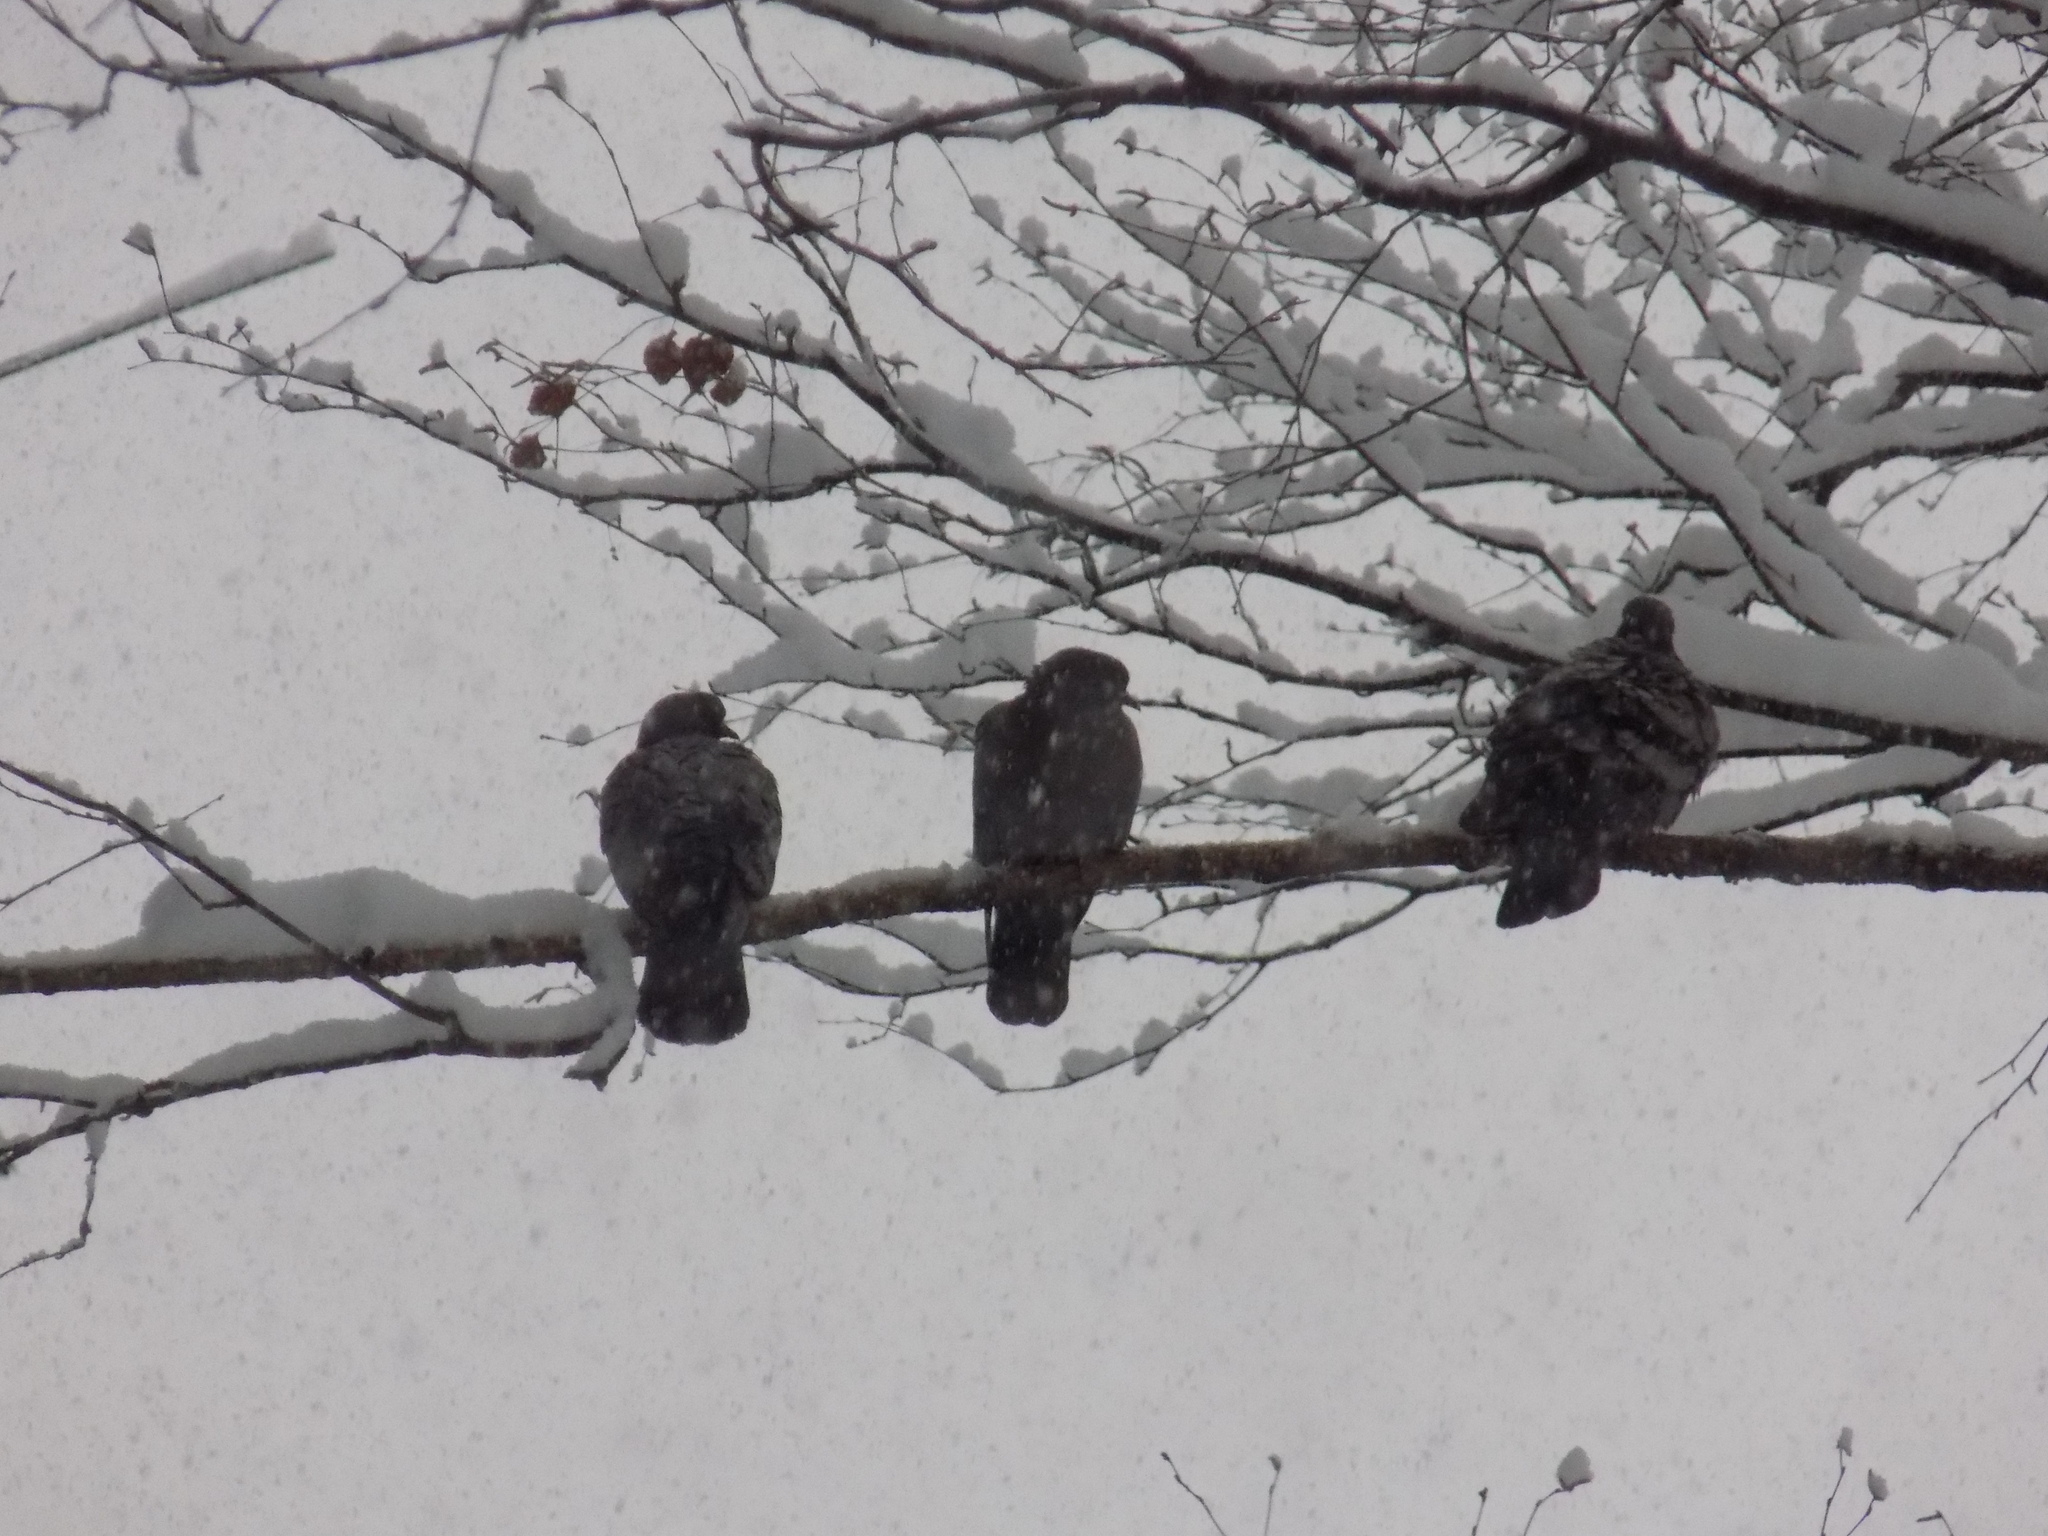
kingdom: Animalia
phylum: Chordata
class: Aves
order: Columbiformes
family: Columbidae
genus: Columba
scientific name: Columba livia
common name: Rock pigeon
